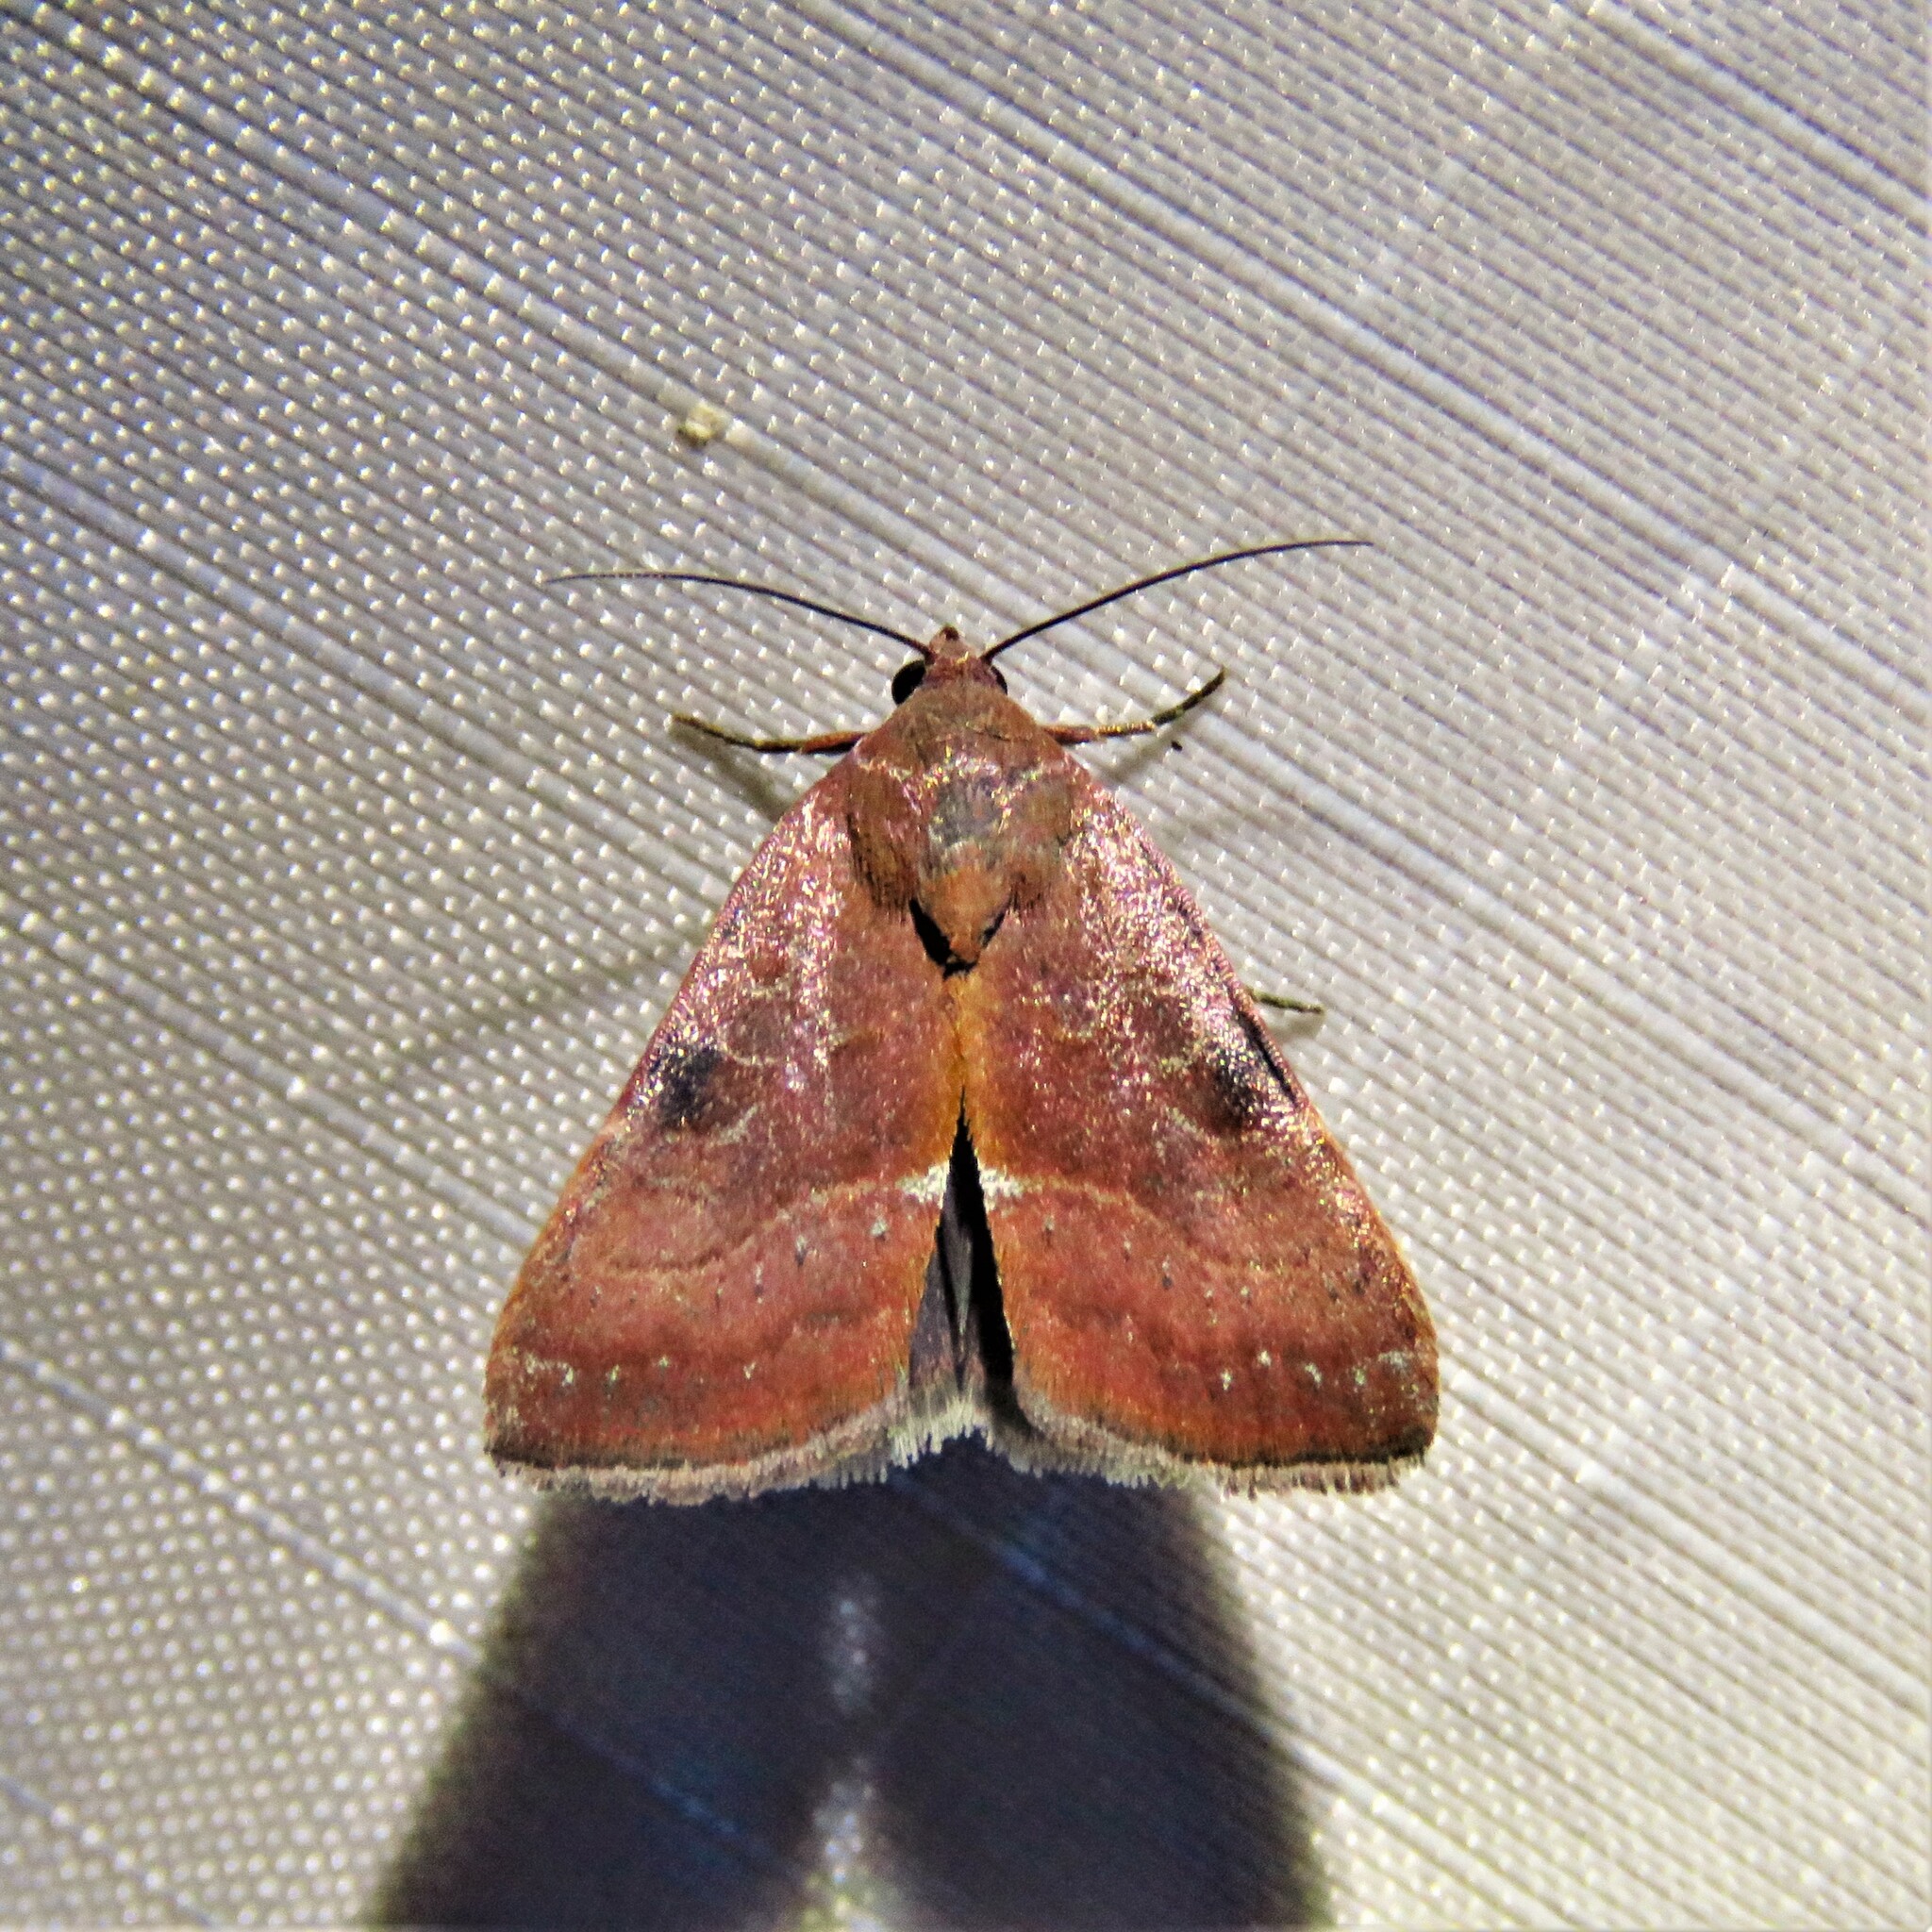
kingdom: Animalia
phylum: Arthropoda
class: Insecta
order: Lepidoptera
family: Noctuidae
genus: Galgula
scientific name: Galgula partita
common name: Wedgeling
